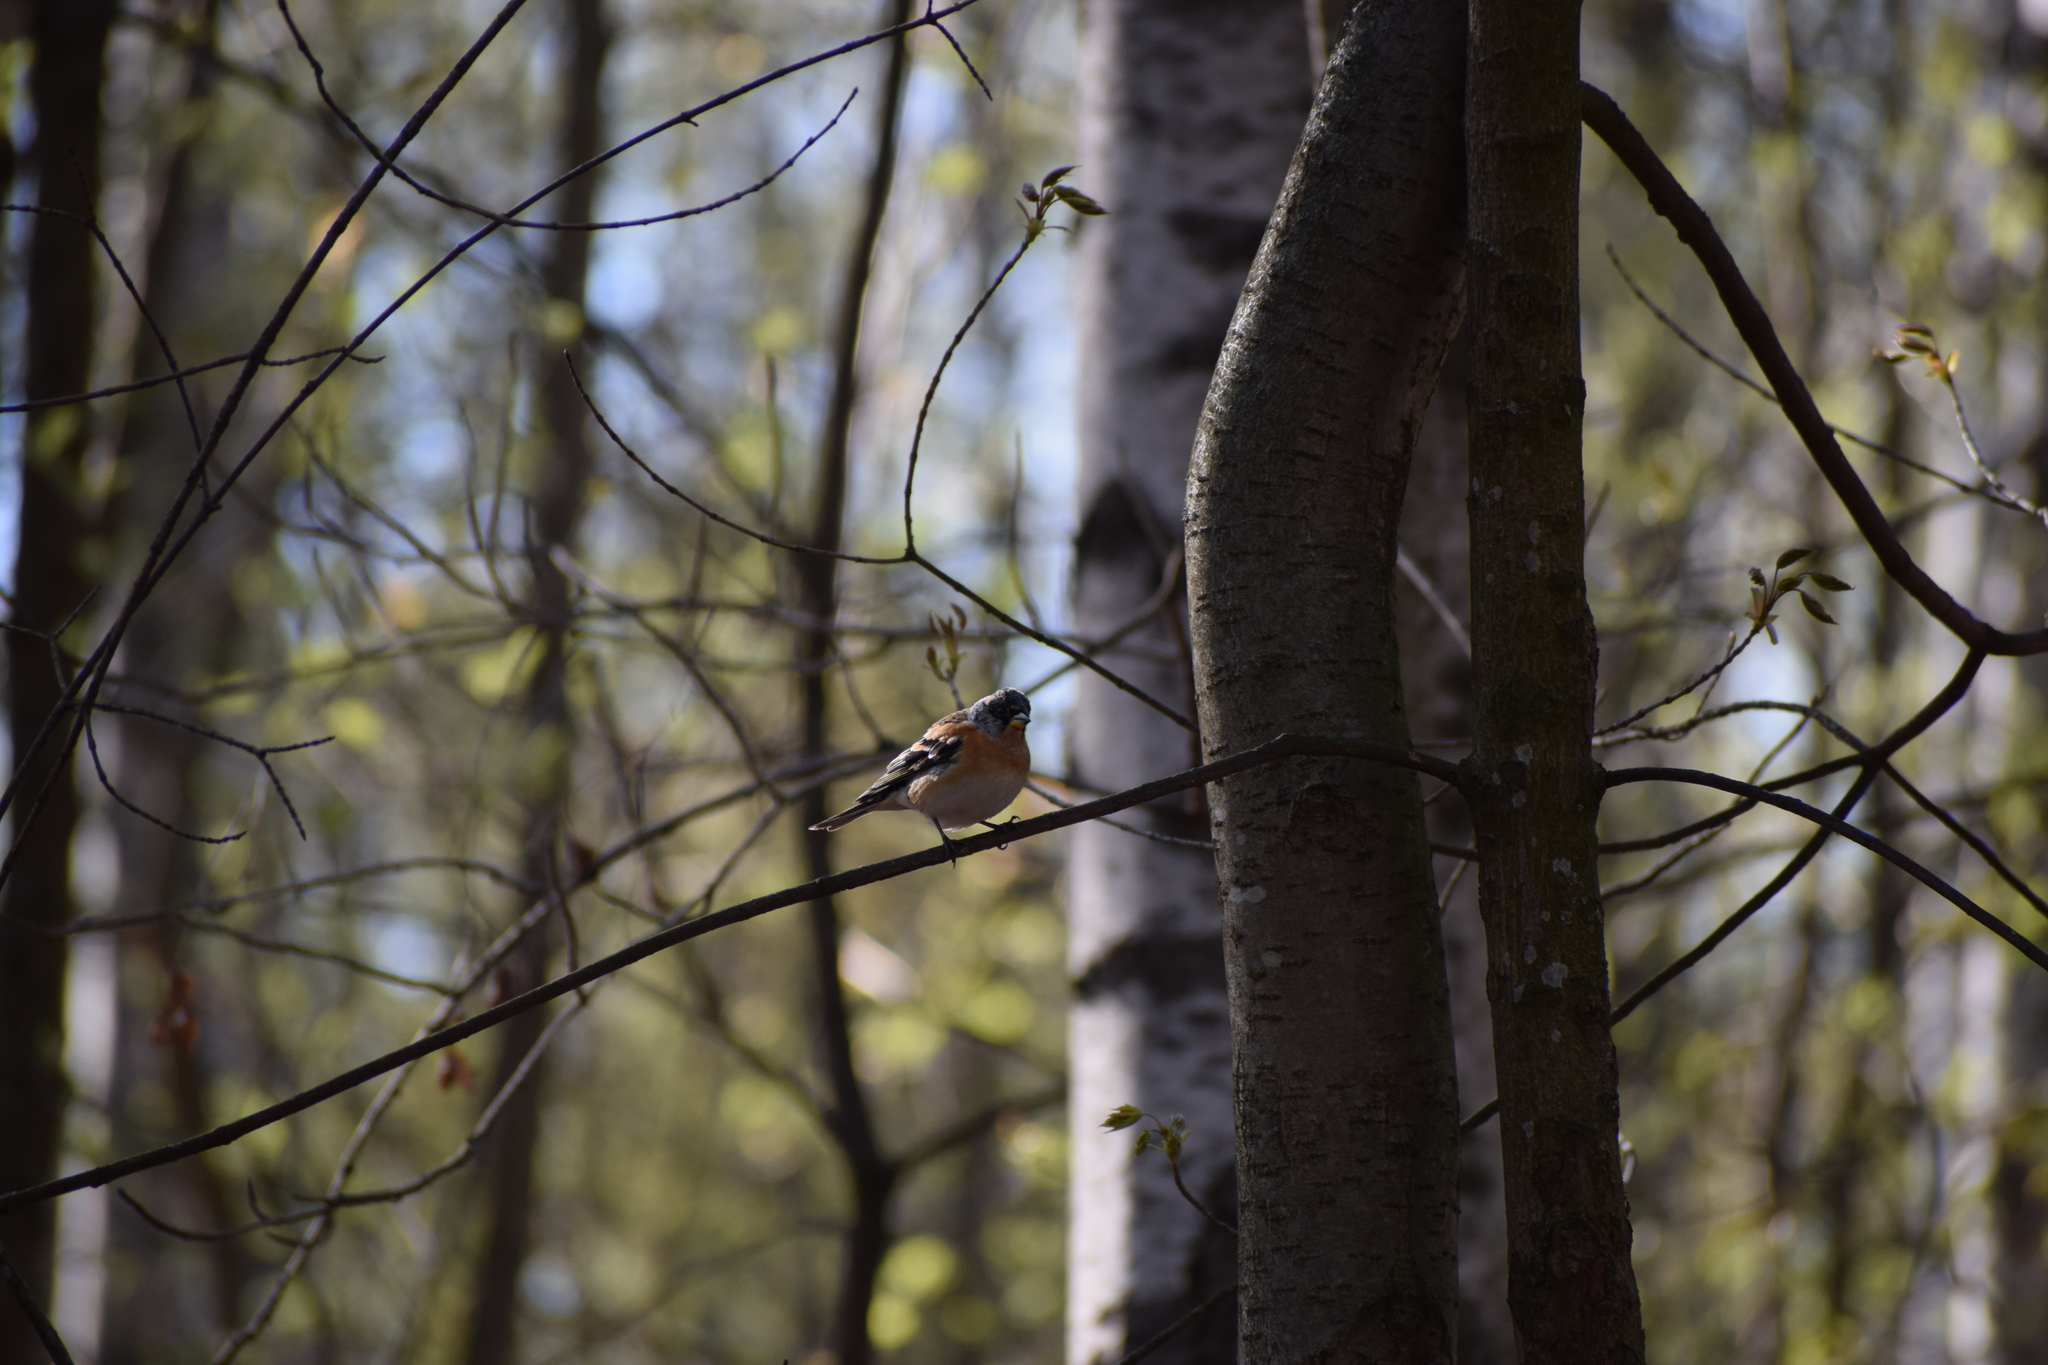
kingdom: Animalia
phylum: Chordata
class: Aves
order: Passeriformes
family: Fringillidae
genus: Fringilla
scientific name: Fringilla montifringilla
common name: Brambling
